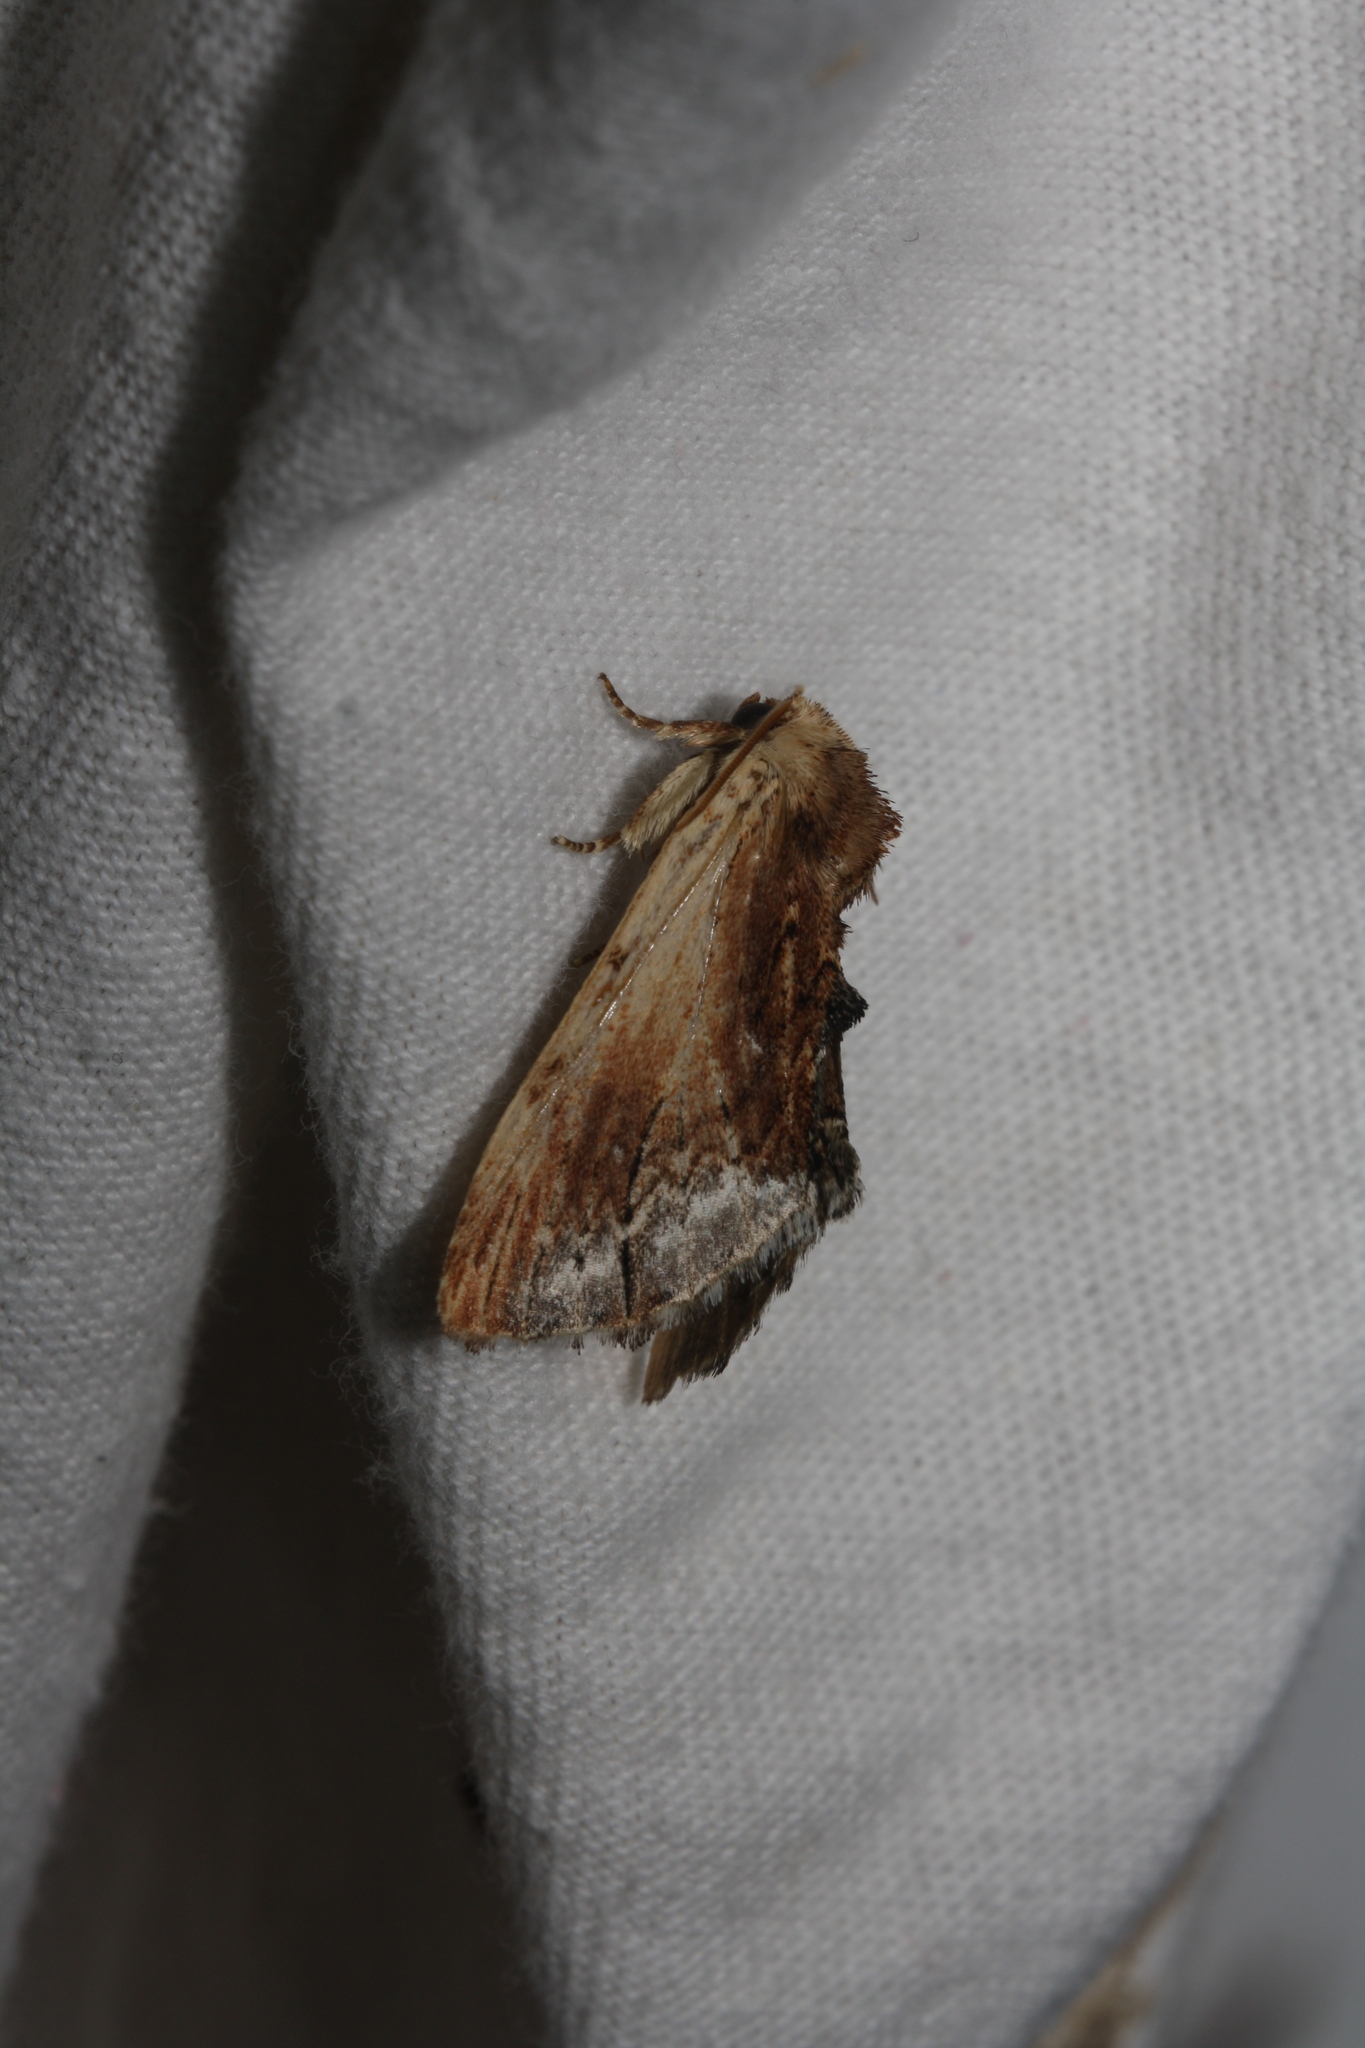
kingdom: Animalia
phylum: Arthropoda
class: Insecta
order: Lepidoptera
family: Notodontidae
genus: Ptilodon
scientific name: Ptilodon cucullina
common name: Maple prominent
